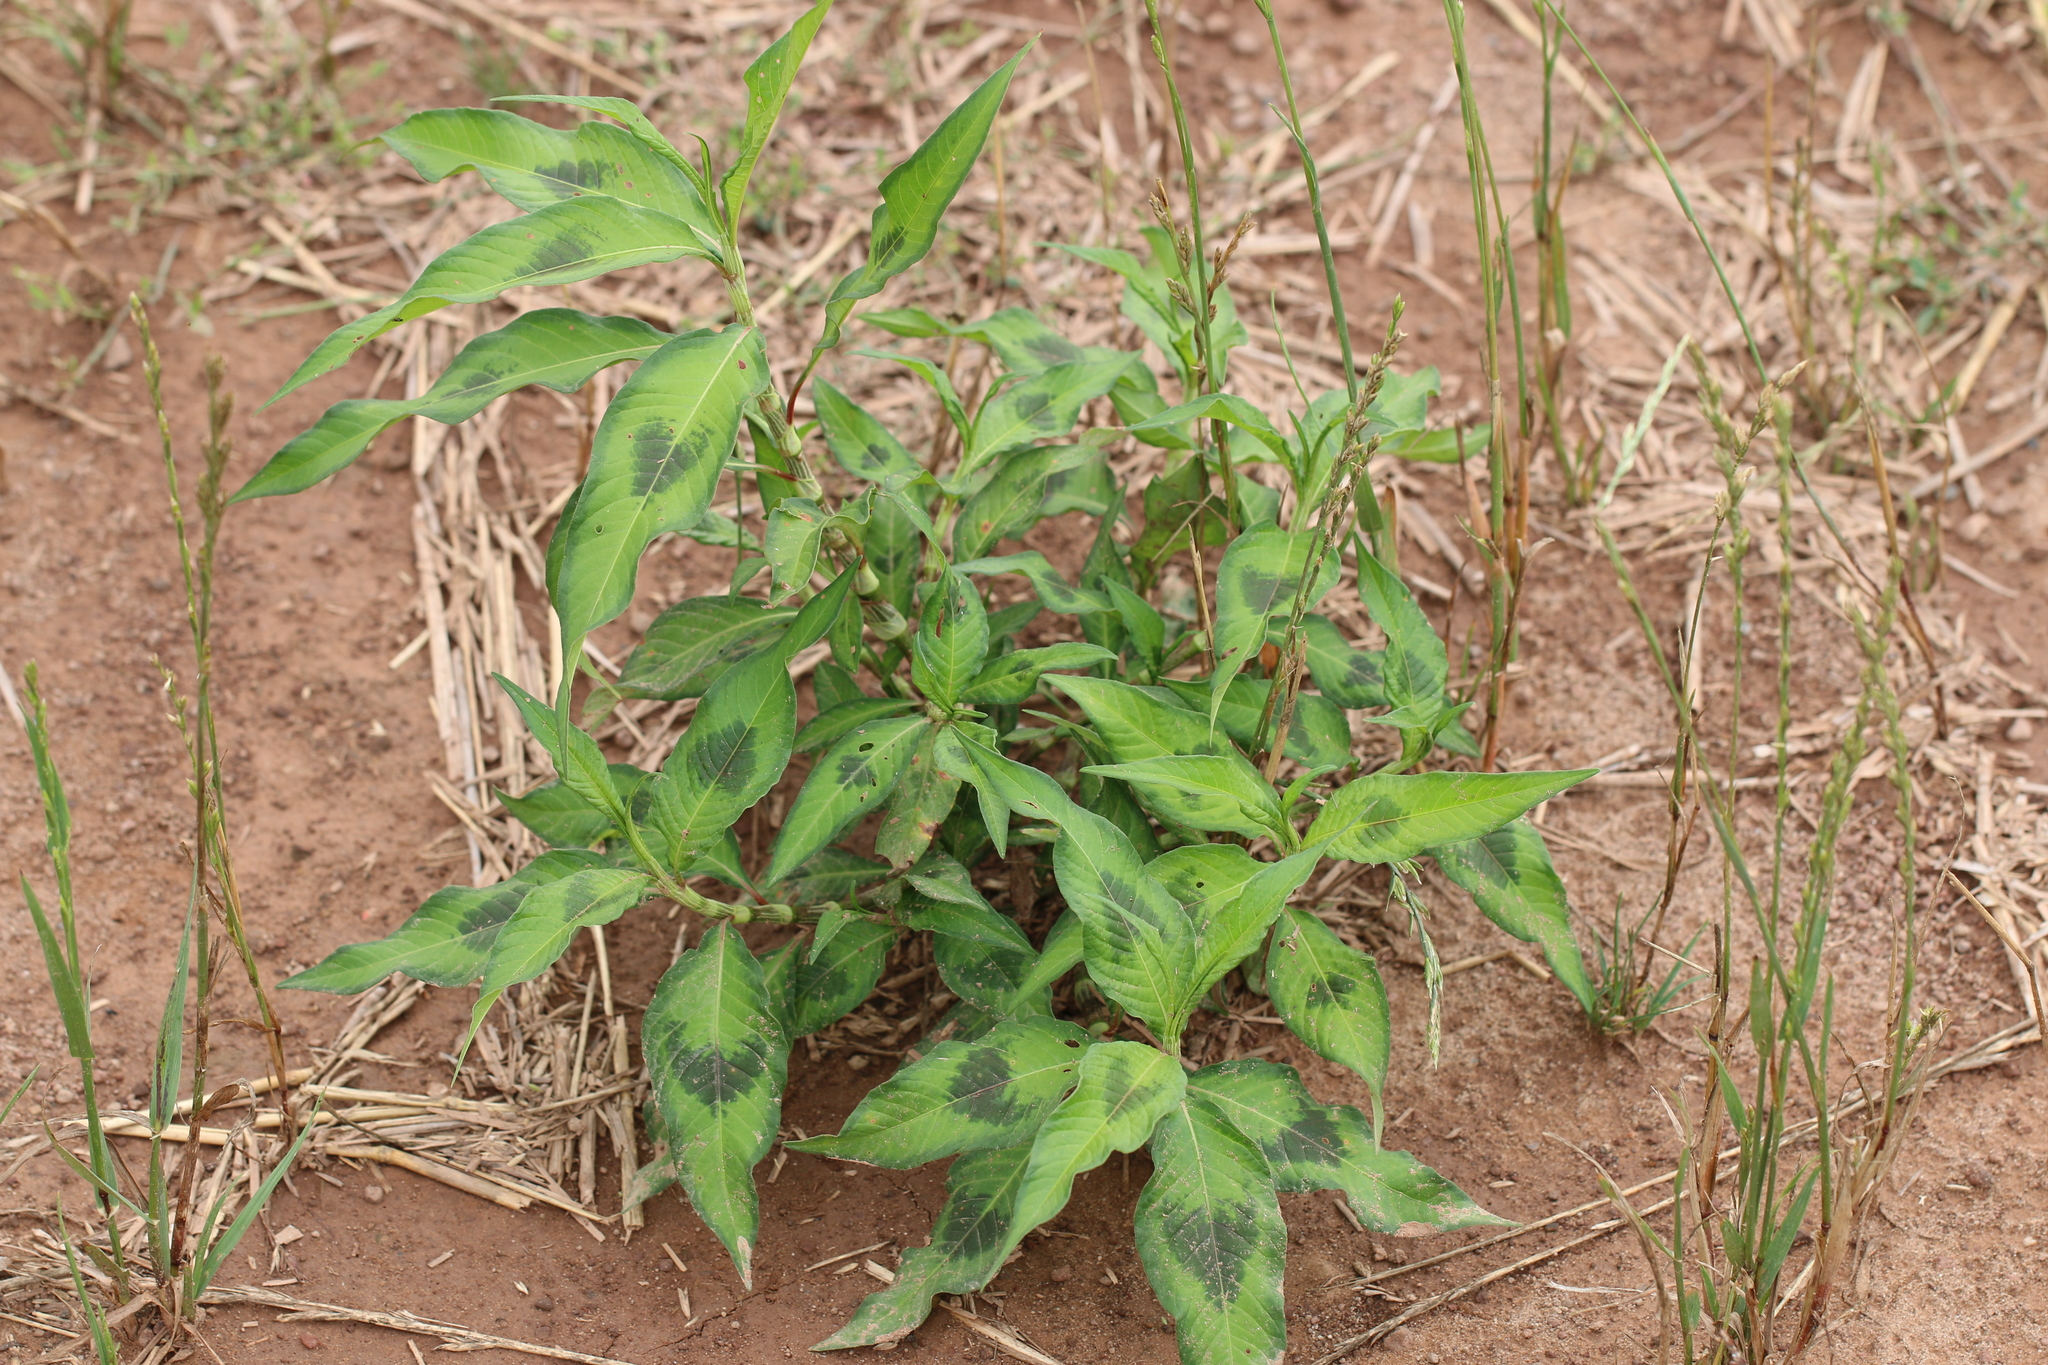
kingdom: Plantae
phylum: Tracheophyta
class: Magnoliopsida
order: Caryophyllales
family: Polygonaceae
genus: Persicaria
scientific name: Persicaria maculosa
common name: Redshank
